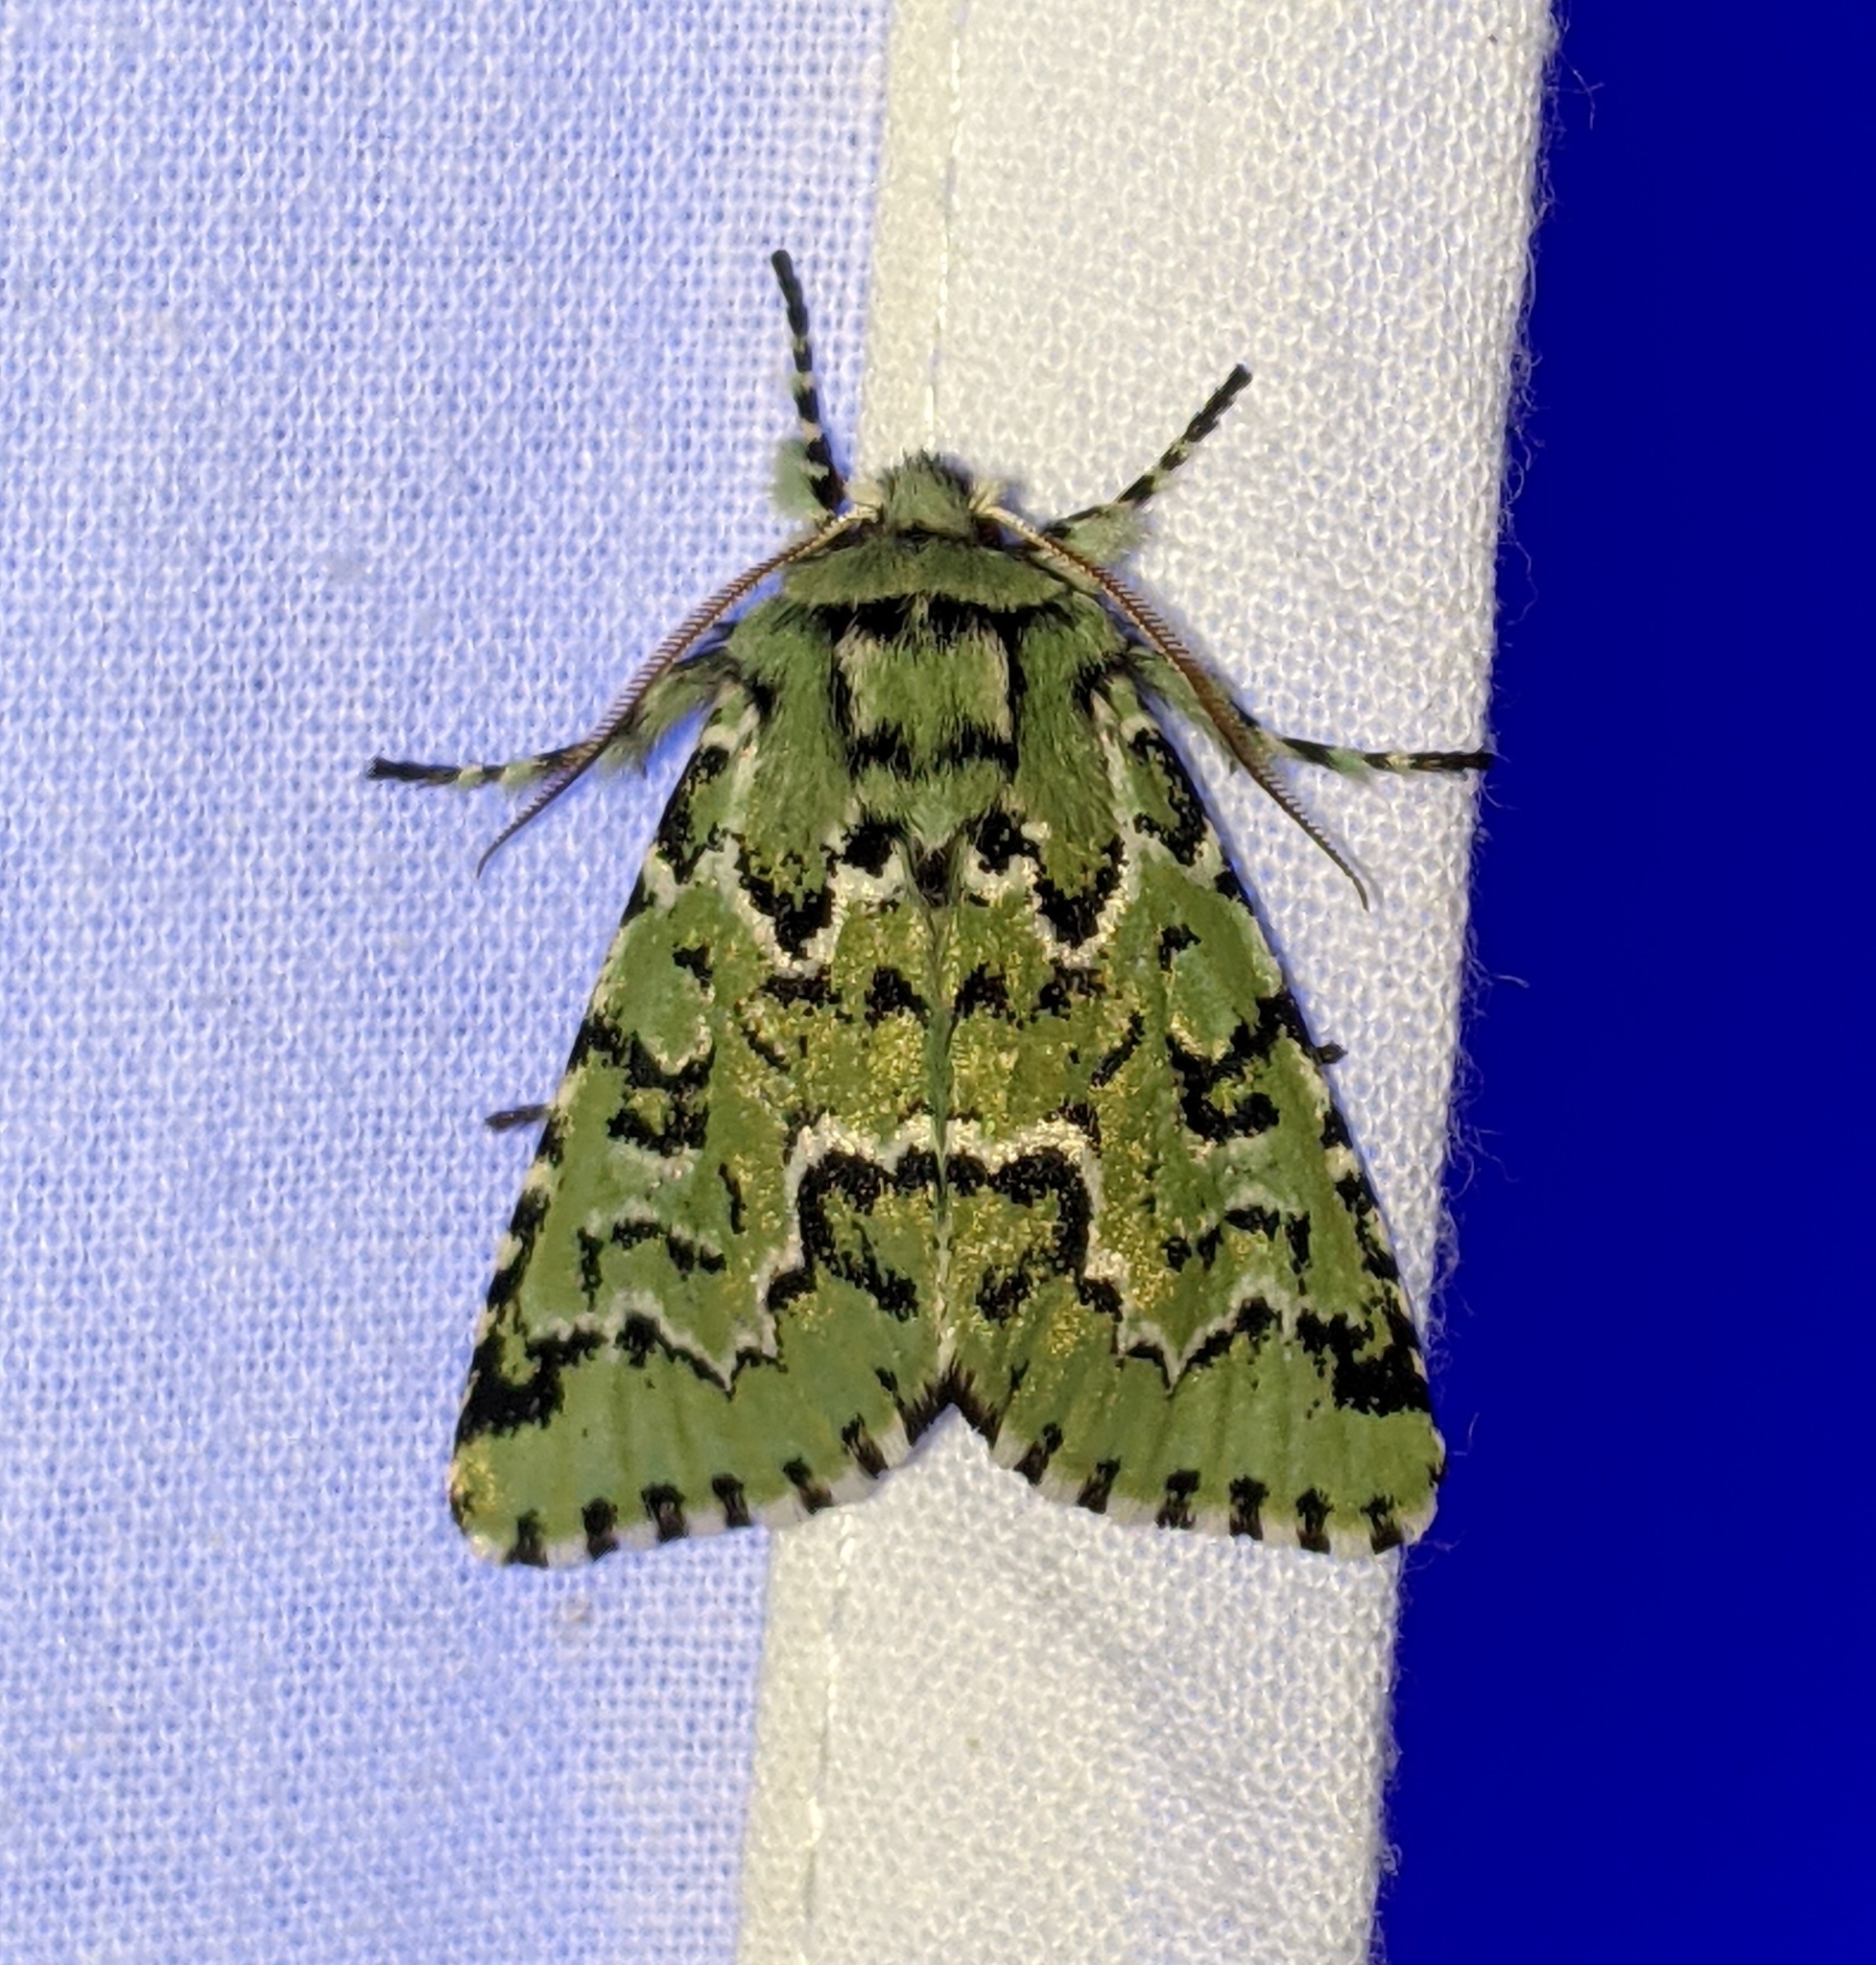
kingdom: Animalia
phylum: Arthropoda
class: Insecta
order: Lepidoptera
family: Noctuidae
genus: Feralia
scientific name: Feralia deceptiva
